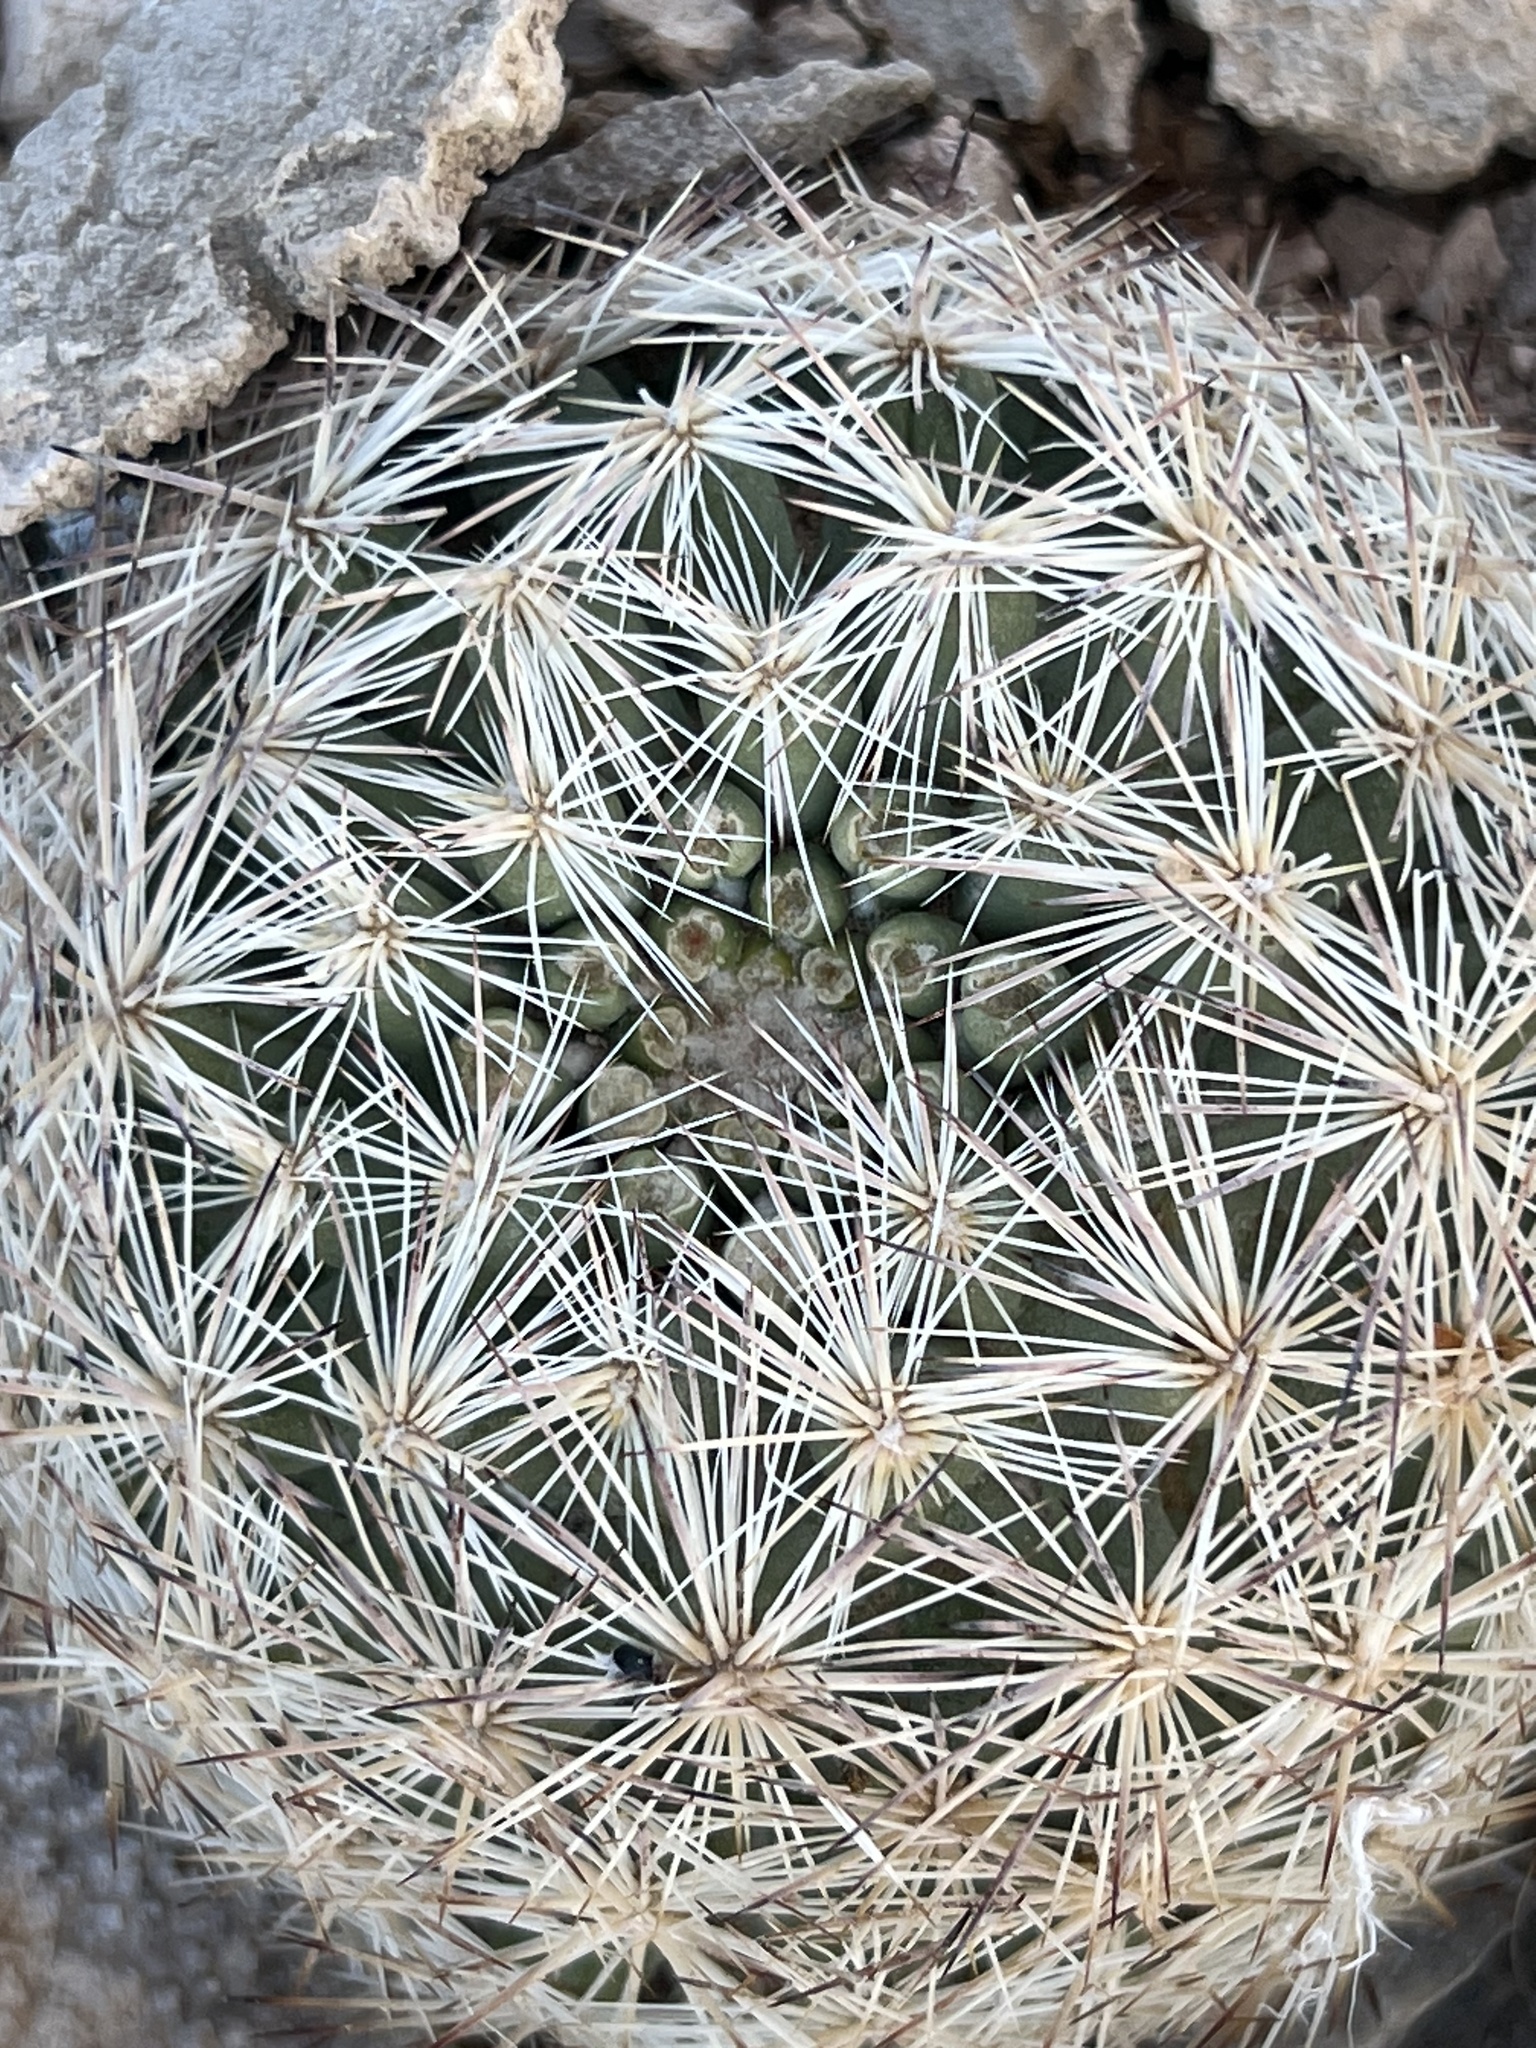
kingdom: Plantae
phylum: Tracheophyta
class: Magnoliopsida
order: Caryophyllales
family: Cactaceae
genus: Pelecyphora
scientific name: Pelecyphora dasyacantha
